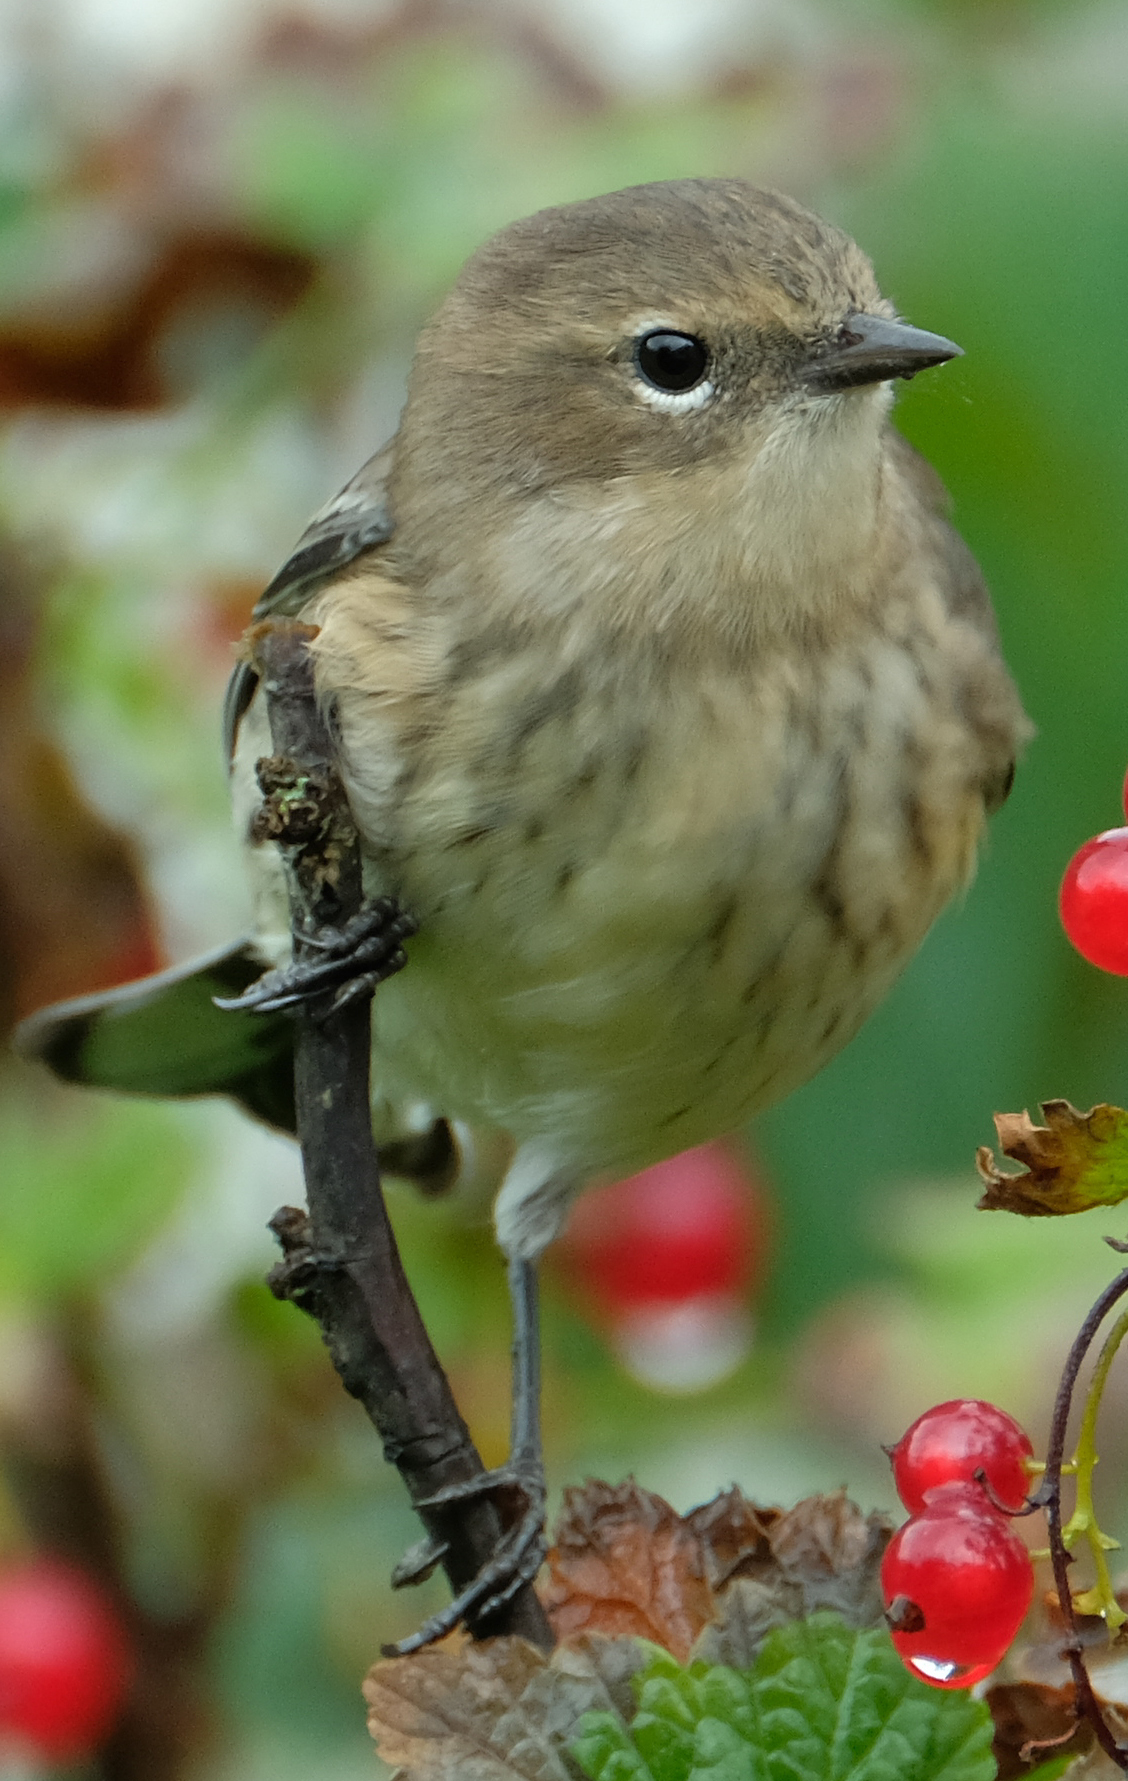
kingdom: Animalia
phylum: Chordata
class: Aves
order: Passeriformes
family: Parulidae
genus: Setophaga
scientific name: Setophaga coronata
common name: Myrtle warbler
